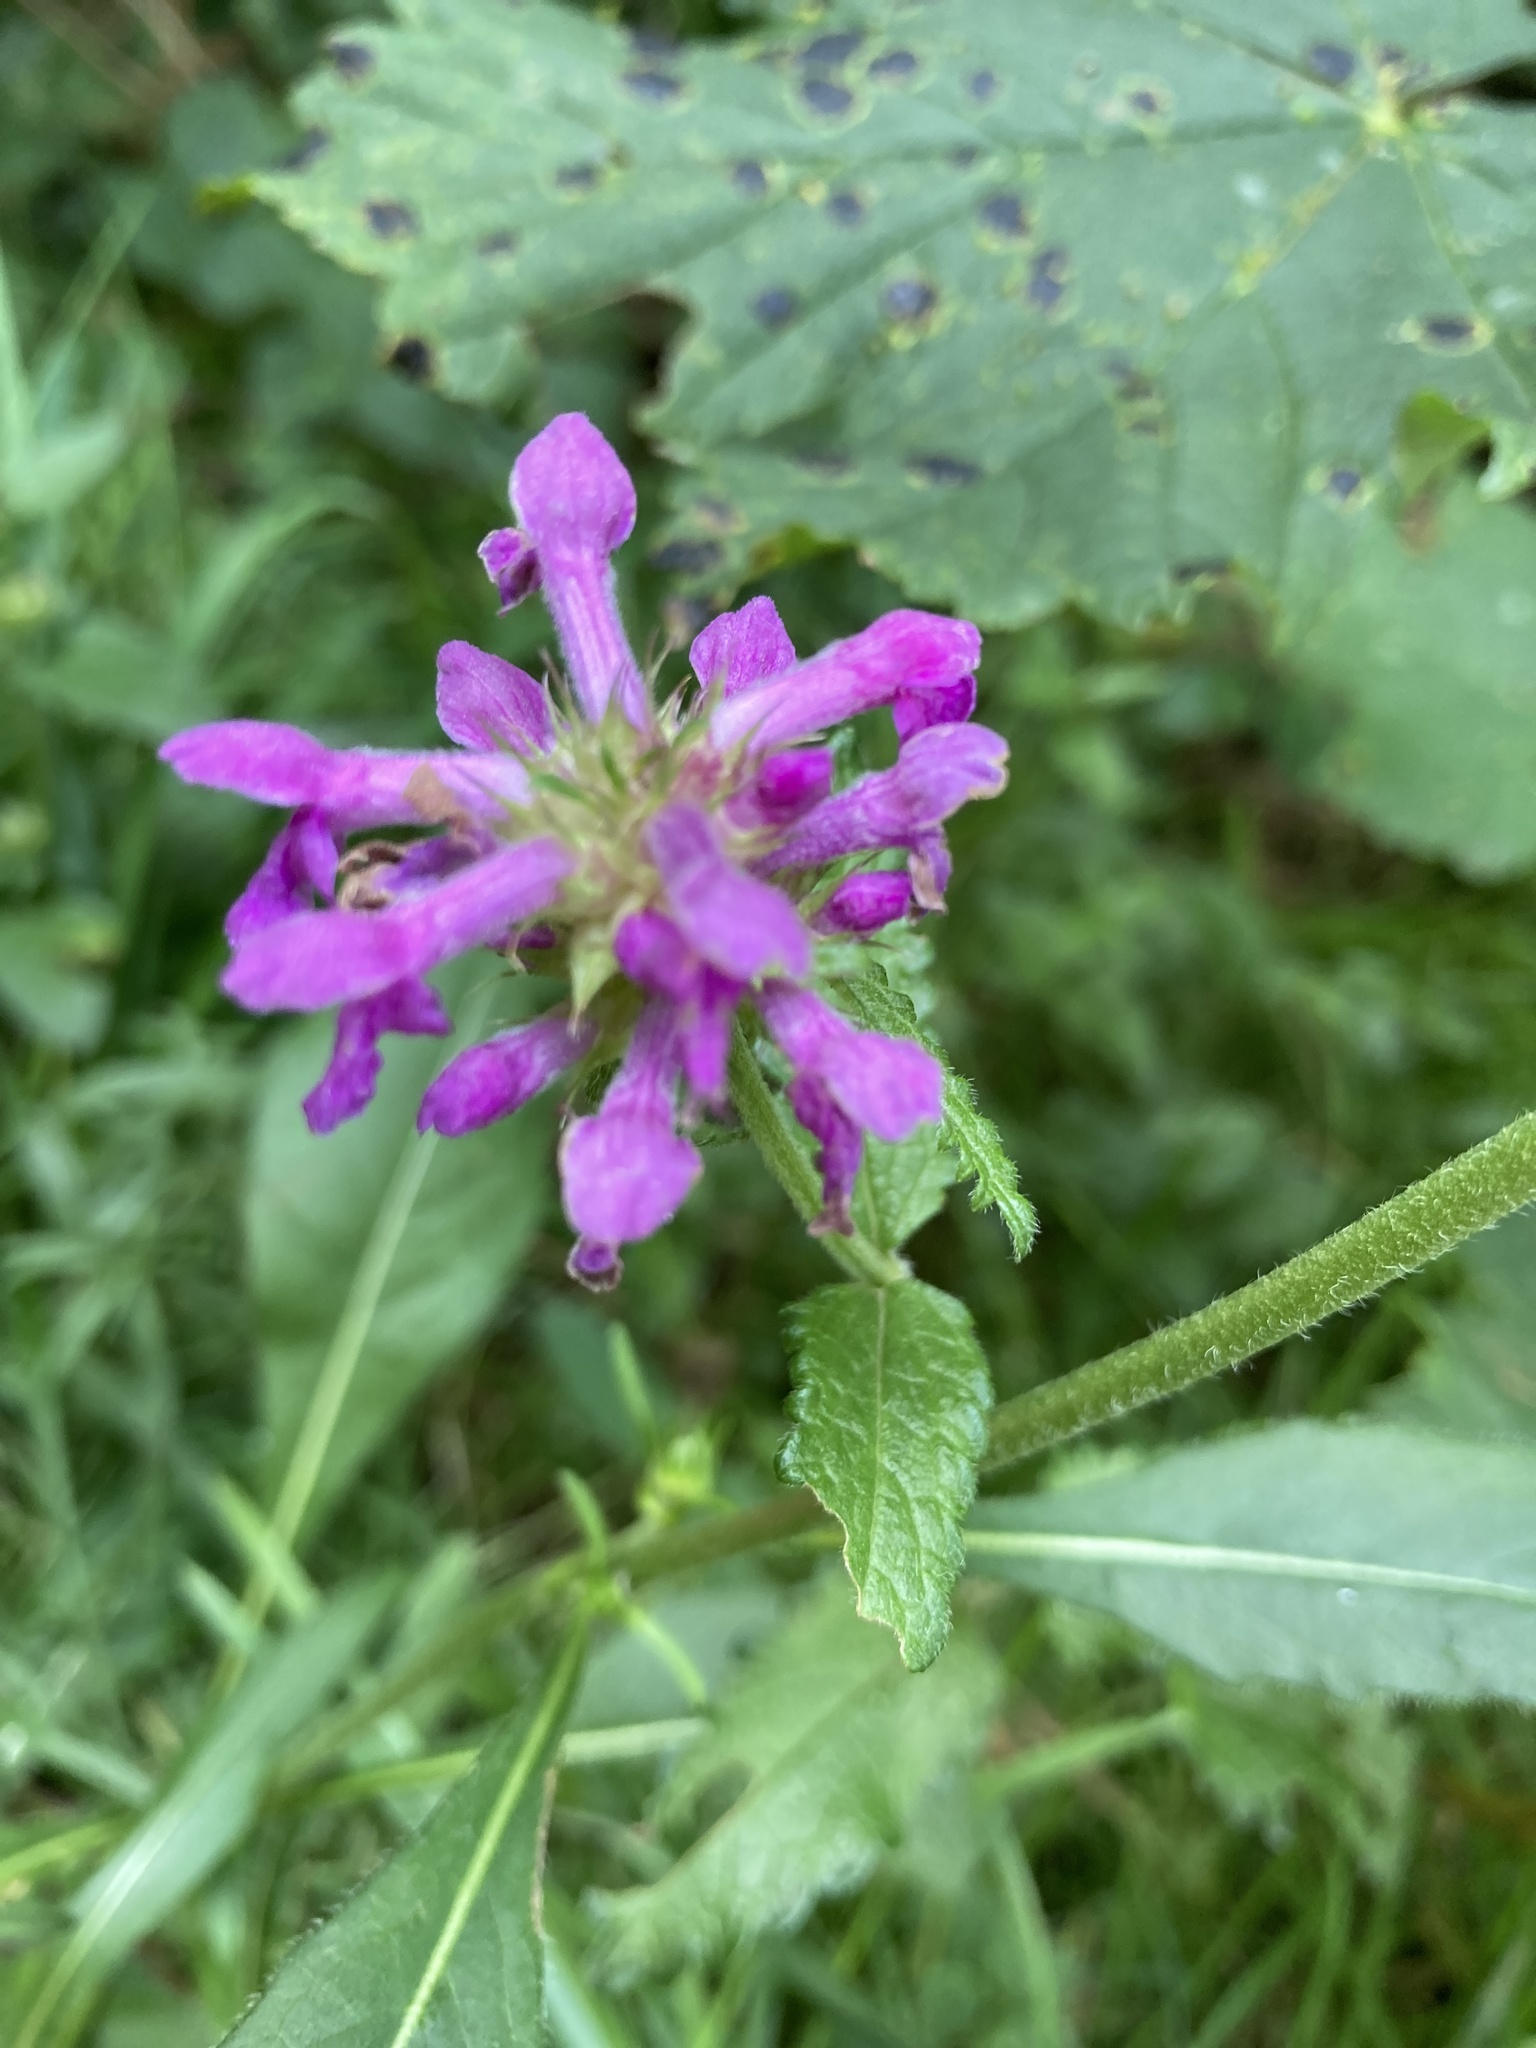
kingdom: Plantae
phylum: Tracheophyta
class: Magnoliopsida
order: Lamiales
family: Lamiaceae
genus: Betonica
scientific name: Betonica officinalis
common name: Bishop's-wort
